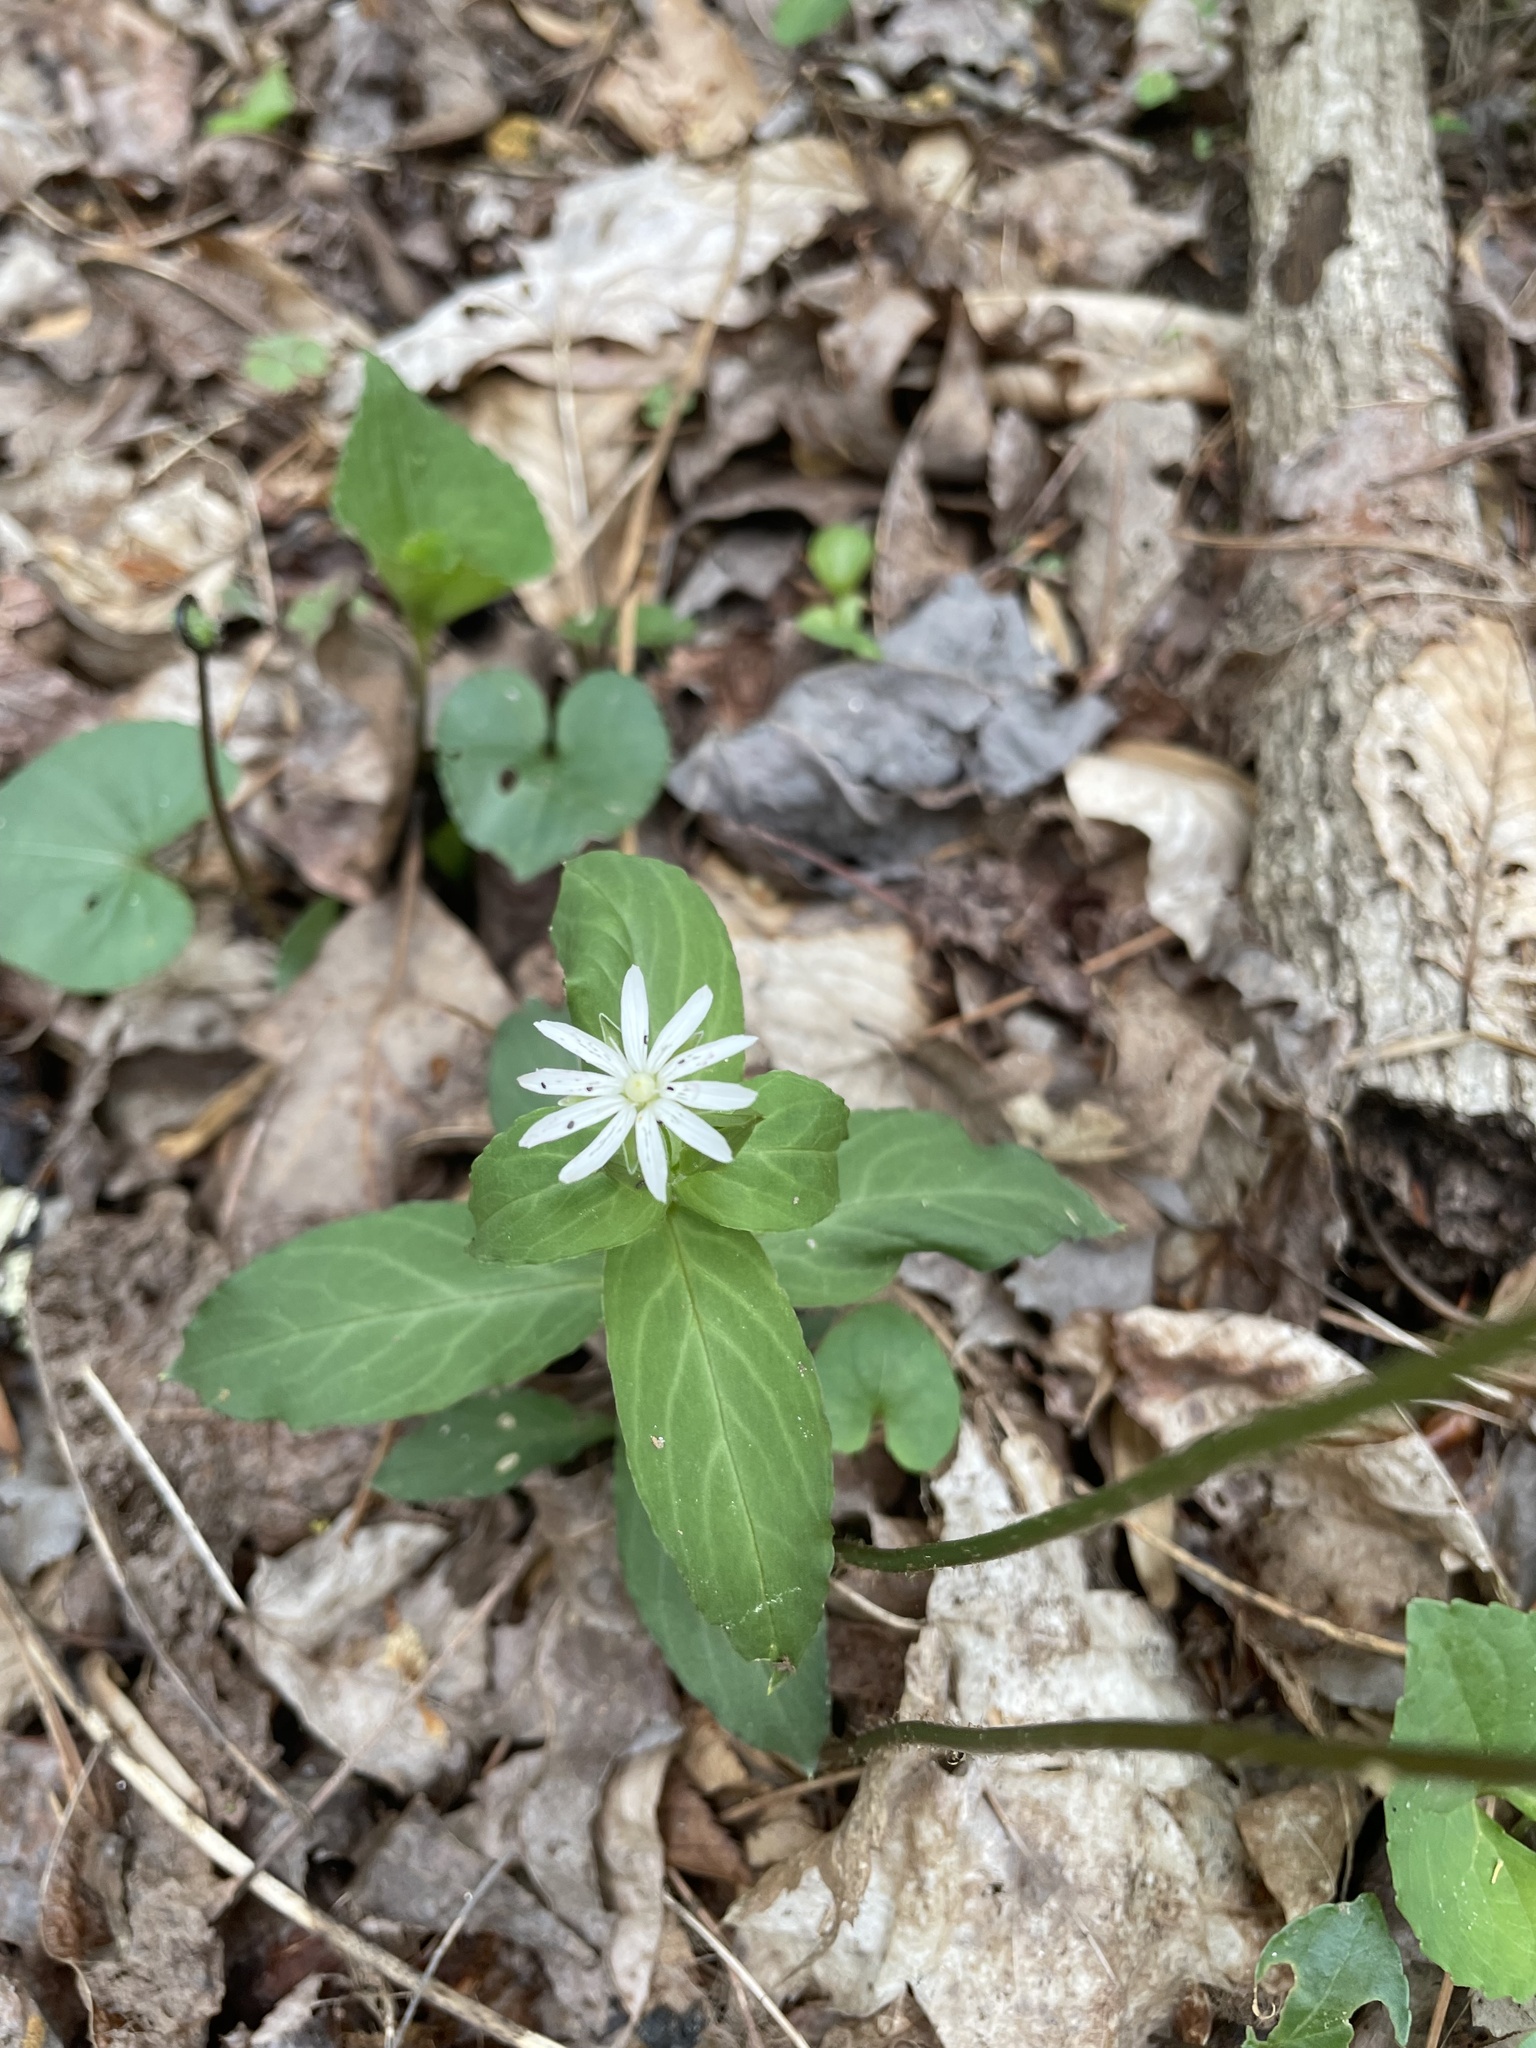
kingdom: Plantae
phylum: Tracheophyta
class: Magnoliopsida
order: Caryophyllales
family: Caryophyllaceae
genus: Stellaria
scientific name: Stellaria pubera
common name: Star chickweed
